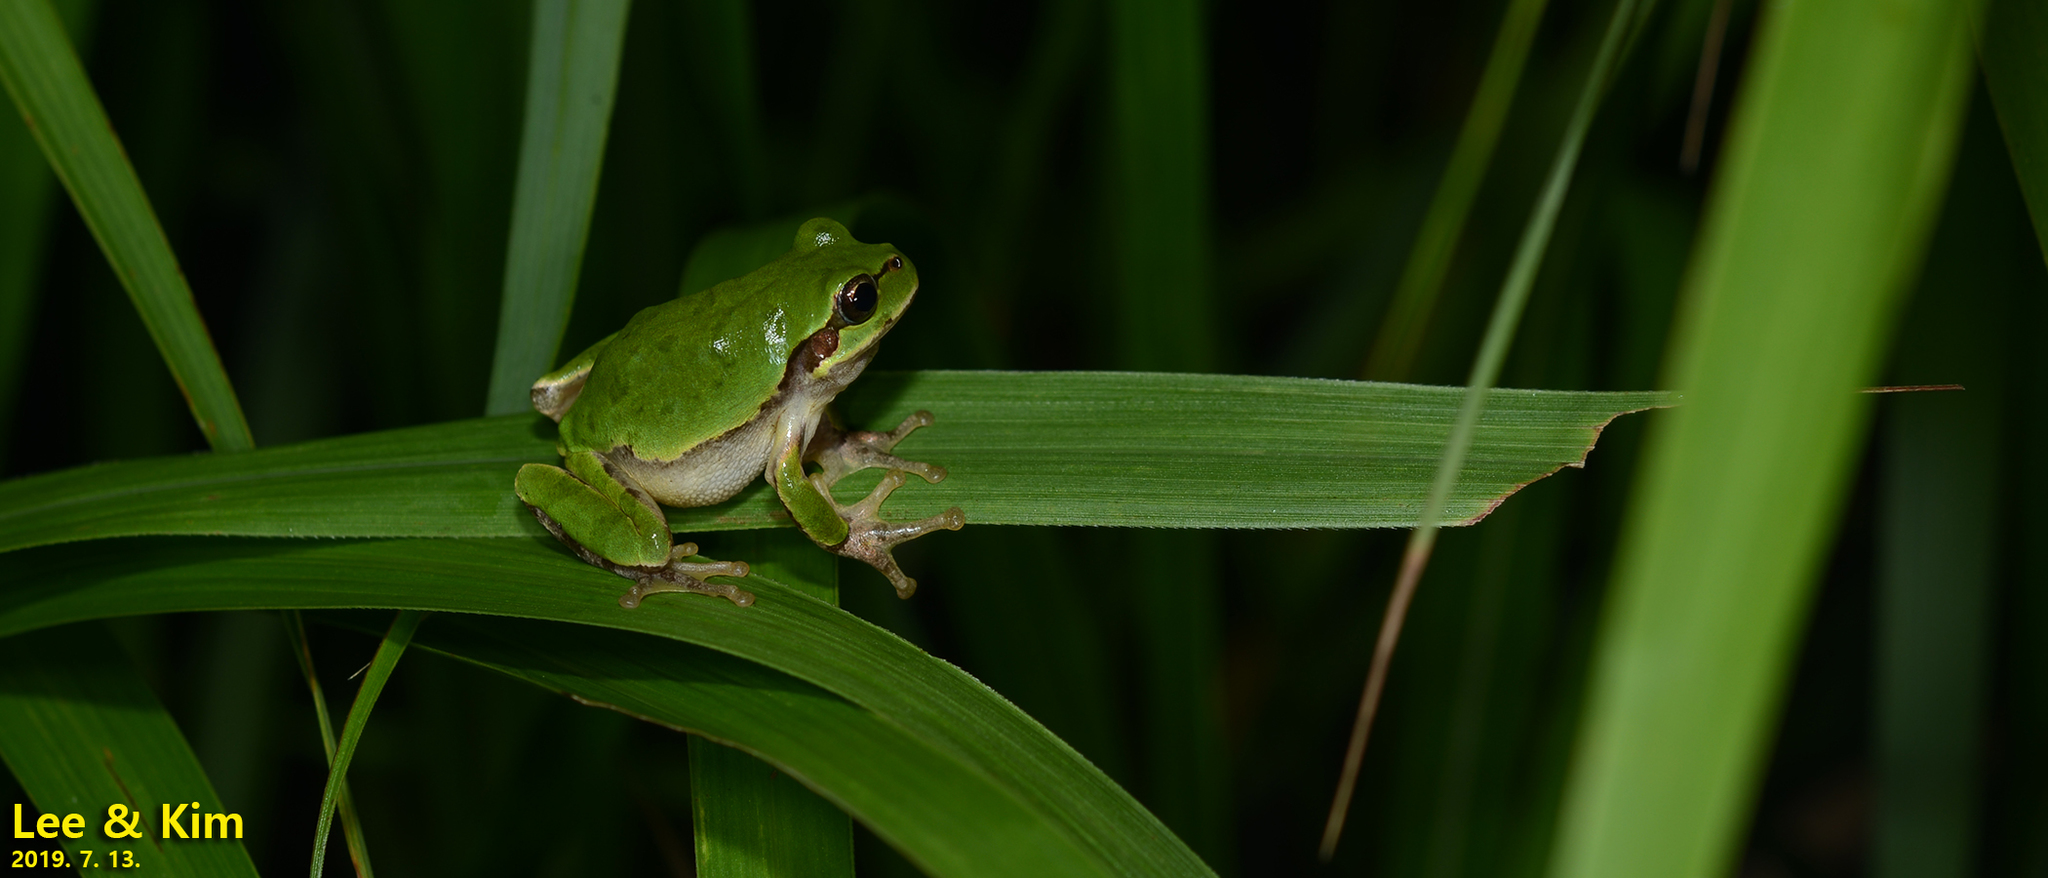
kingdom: Animalia
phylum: Chordata
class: Amphibia
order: Anura
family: Hylidae
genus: Dryophytes
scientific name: Dryophytes japonicus
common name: Japanese treefrog
